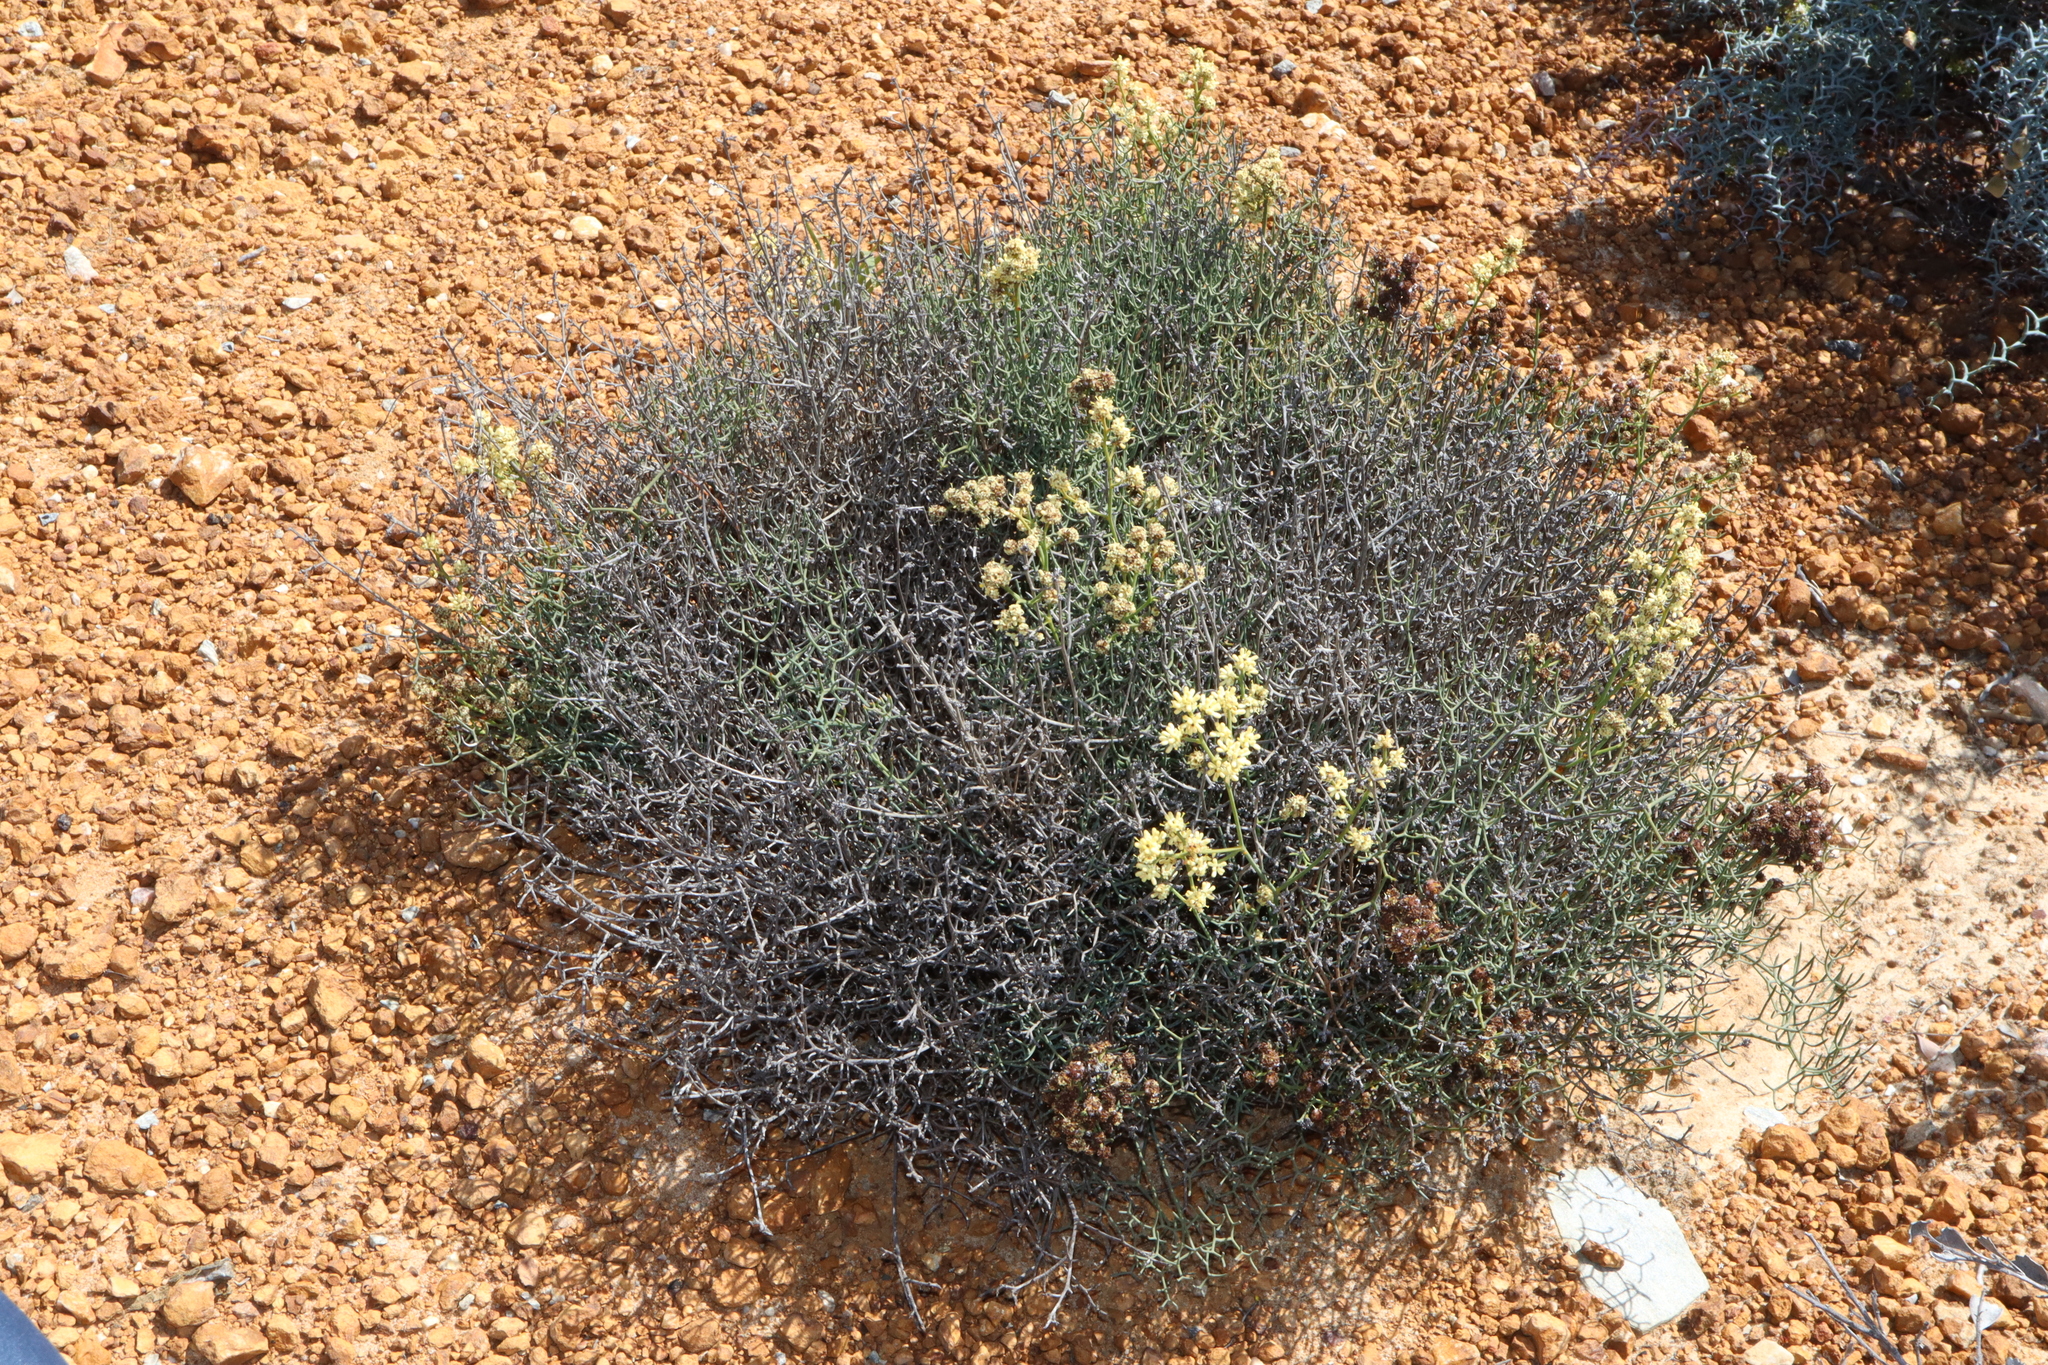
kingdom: Plantae
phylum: Tracheophyta
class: Magnoliopsida
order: Proteales
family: Proteaceae
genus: Stirlingia
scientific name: Stirlingia anethifolia
